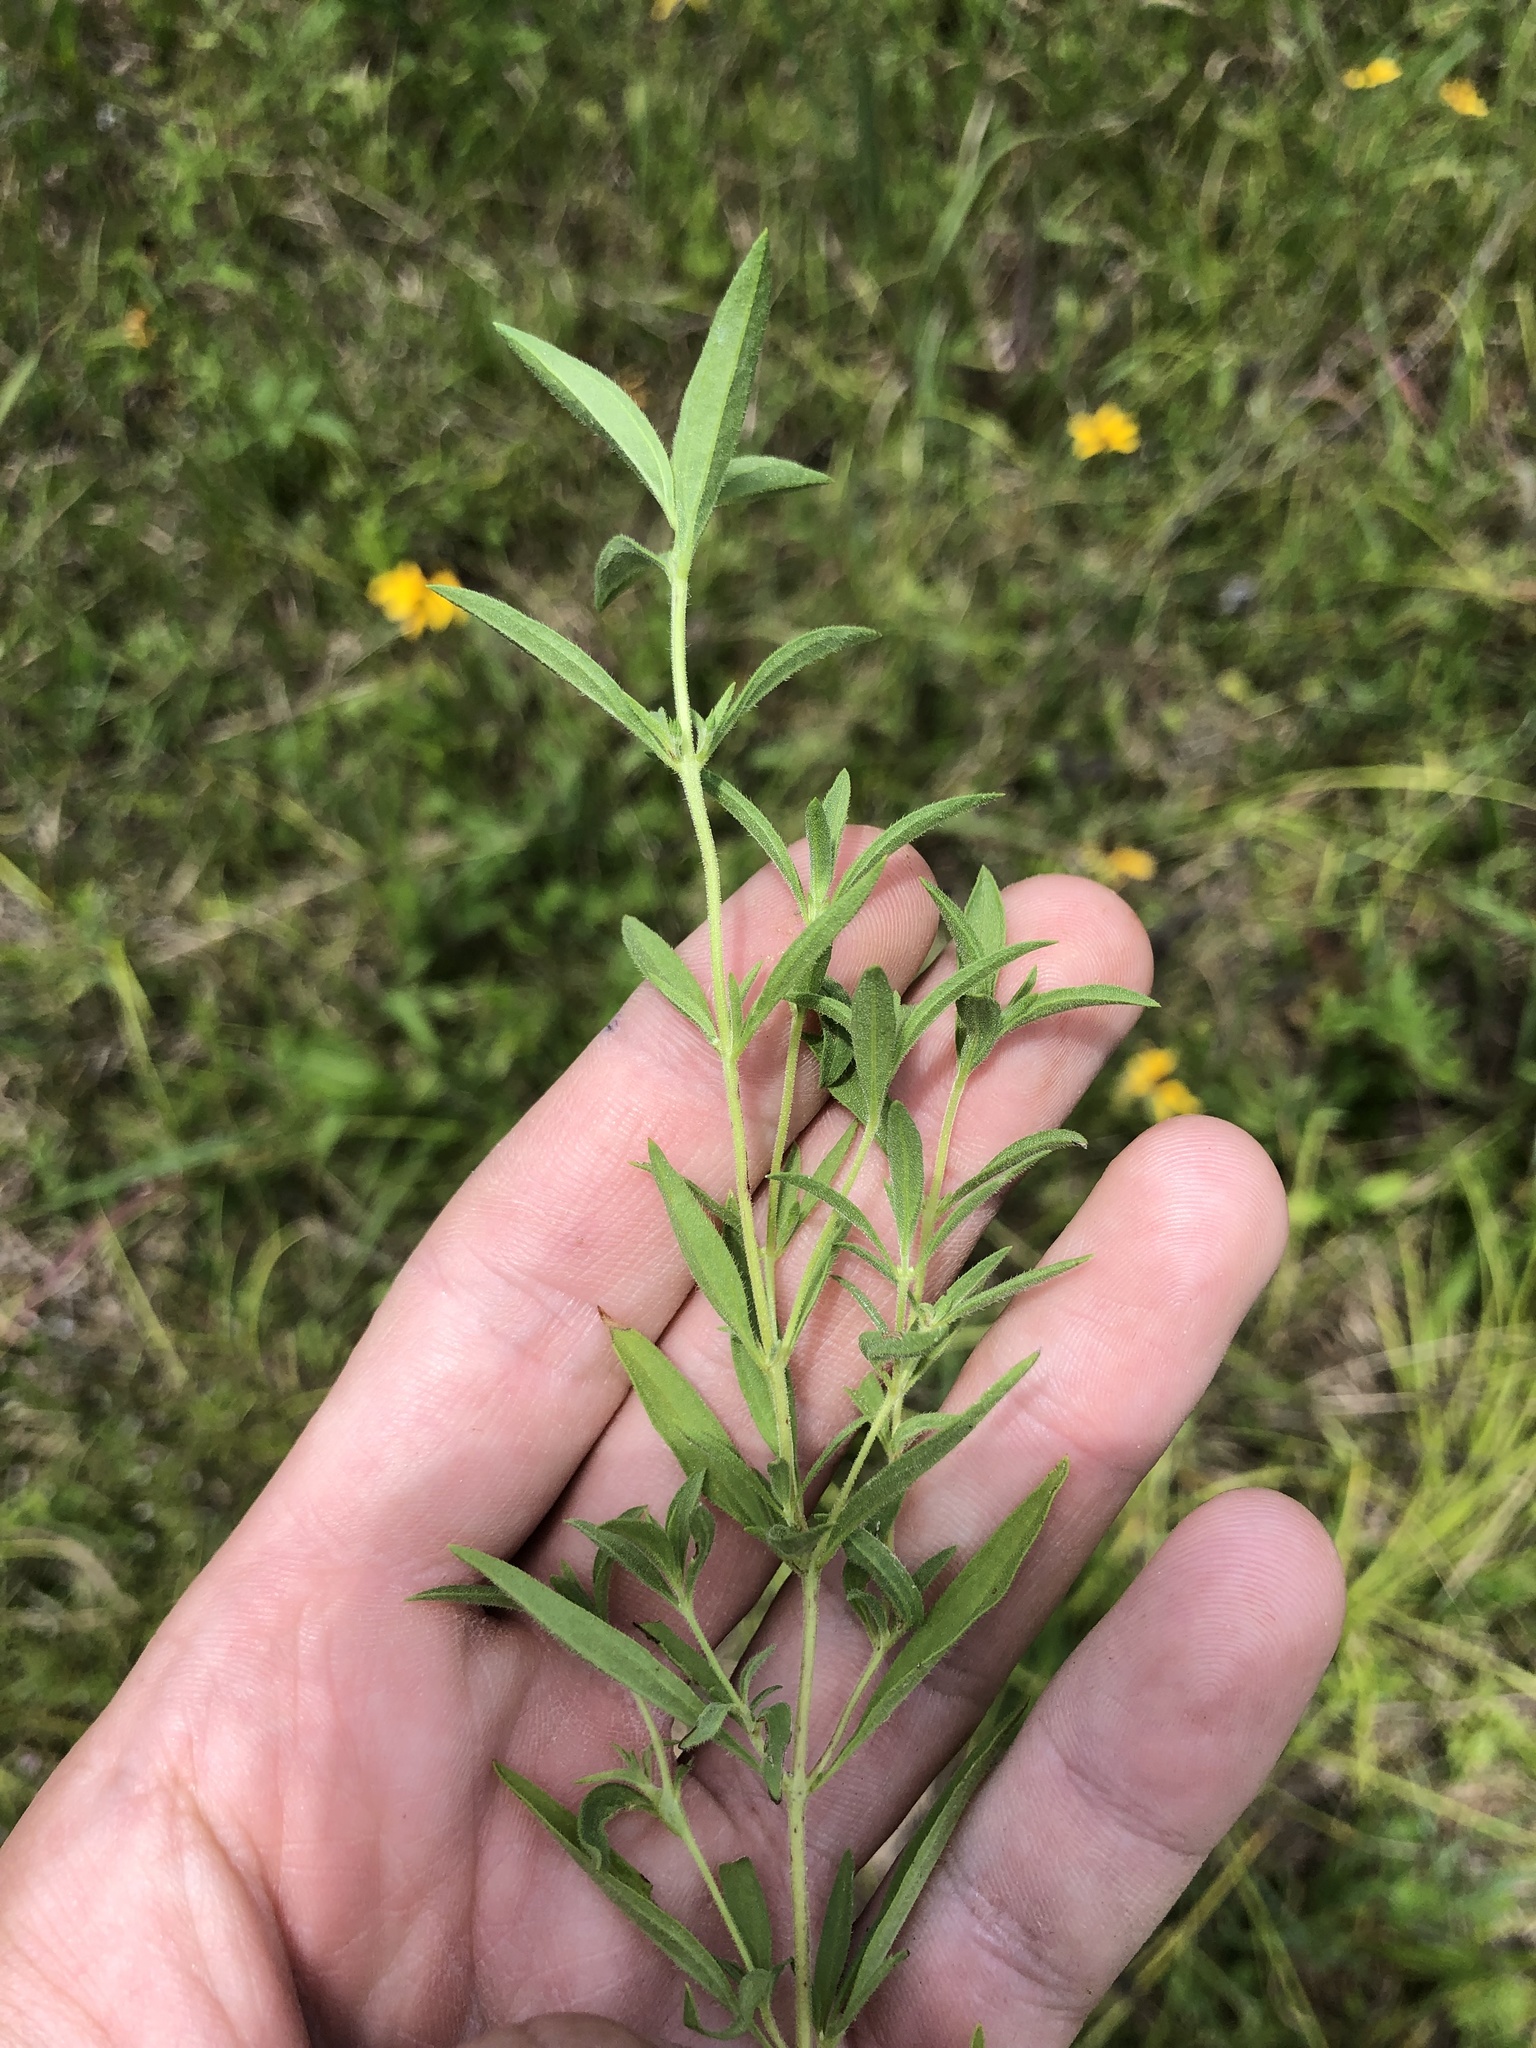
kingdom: Plantae
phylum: Tracheophyta
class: Magnoliopsida
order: Lamiales
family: Lamiaceae
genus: Trichostema
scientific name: Trichostema brachiatum
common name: False pennyroyal
